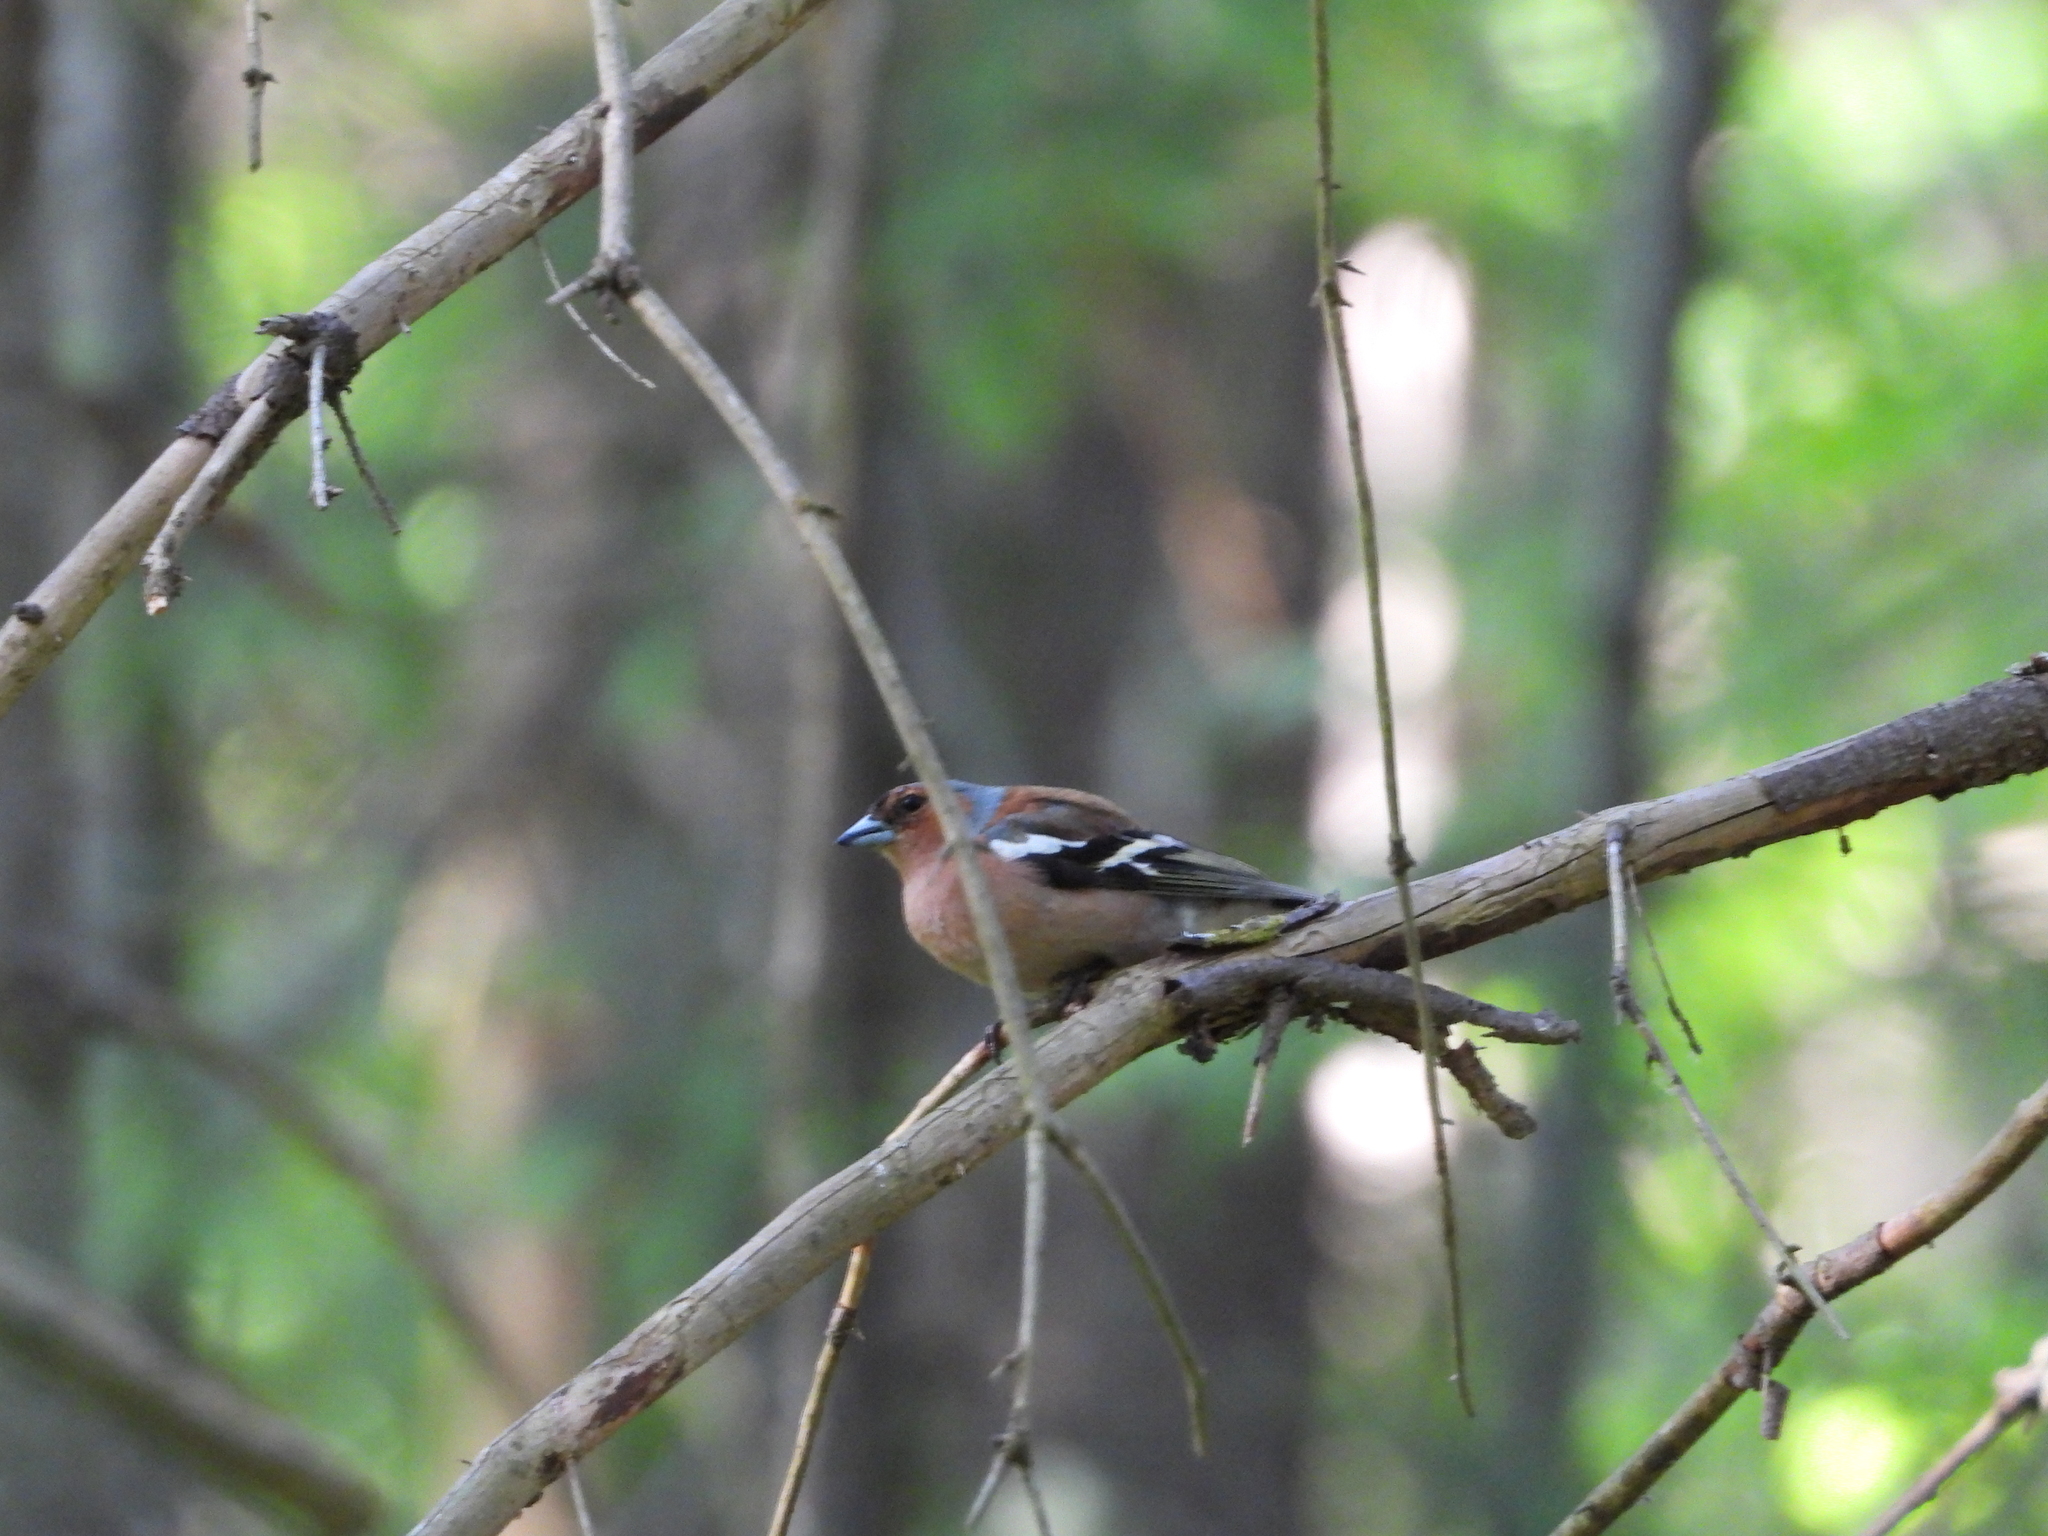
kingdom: Animalia
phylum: Chordata
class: Aves
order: Passeriformes
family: Fringillidae
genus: Fringilla
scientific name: Fringilla coelebs
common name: Common chaffinch
